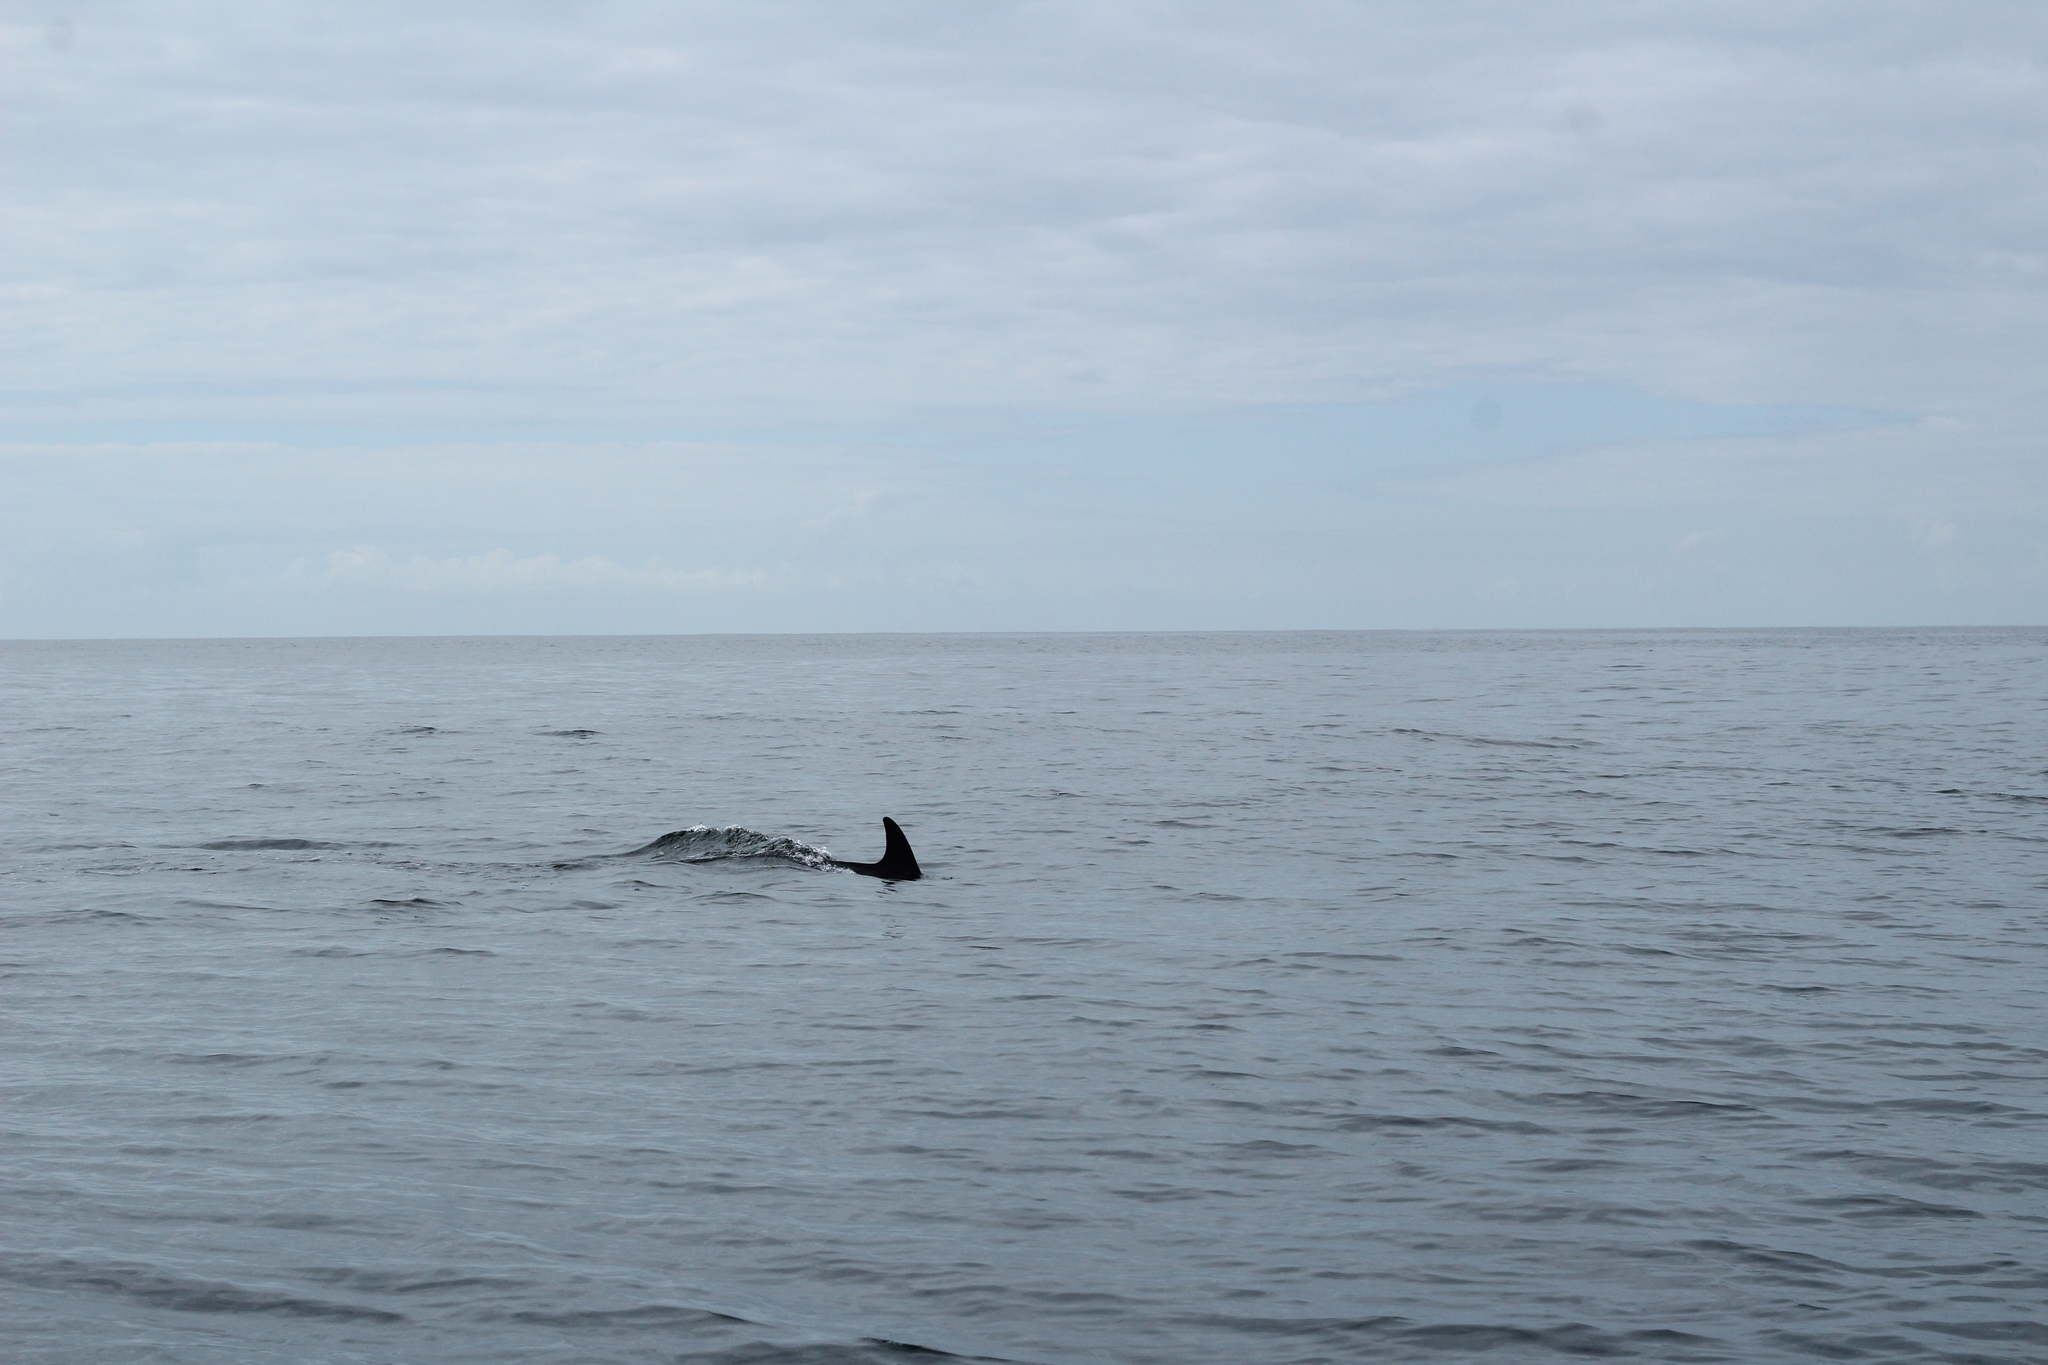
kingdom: Animalia
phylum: Chordata
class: Mammalia
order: Cetacea
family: Delphinidae
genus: Delphinus
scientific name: Delphinus delphis
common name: Common dolphin
